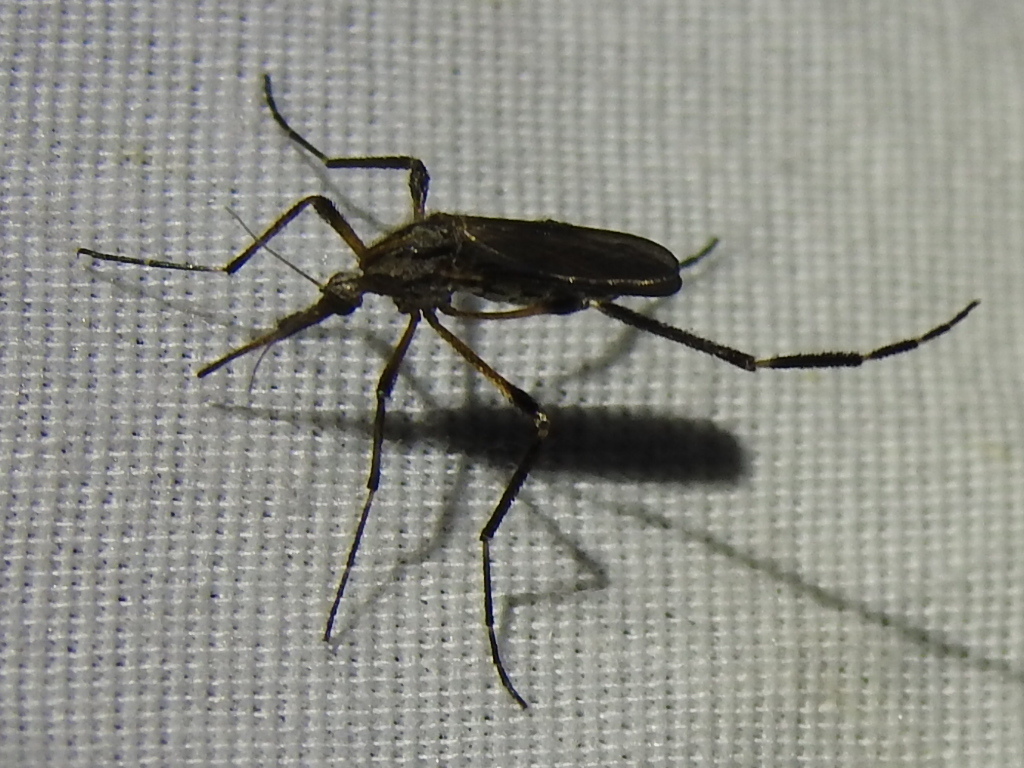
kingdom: Animalia
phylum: Arthropoda
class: Insecta
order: Diptera
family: Culicidae
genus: Psorophora
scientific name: Psorophora ciliata
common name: Gallinipper
